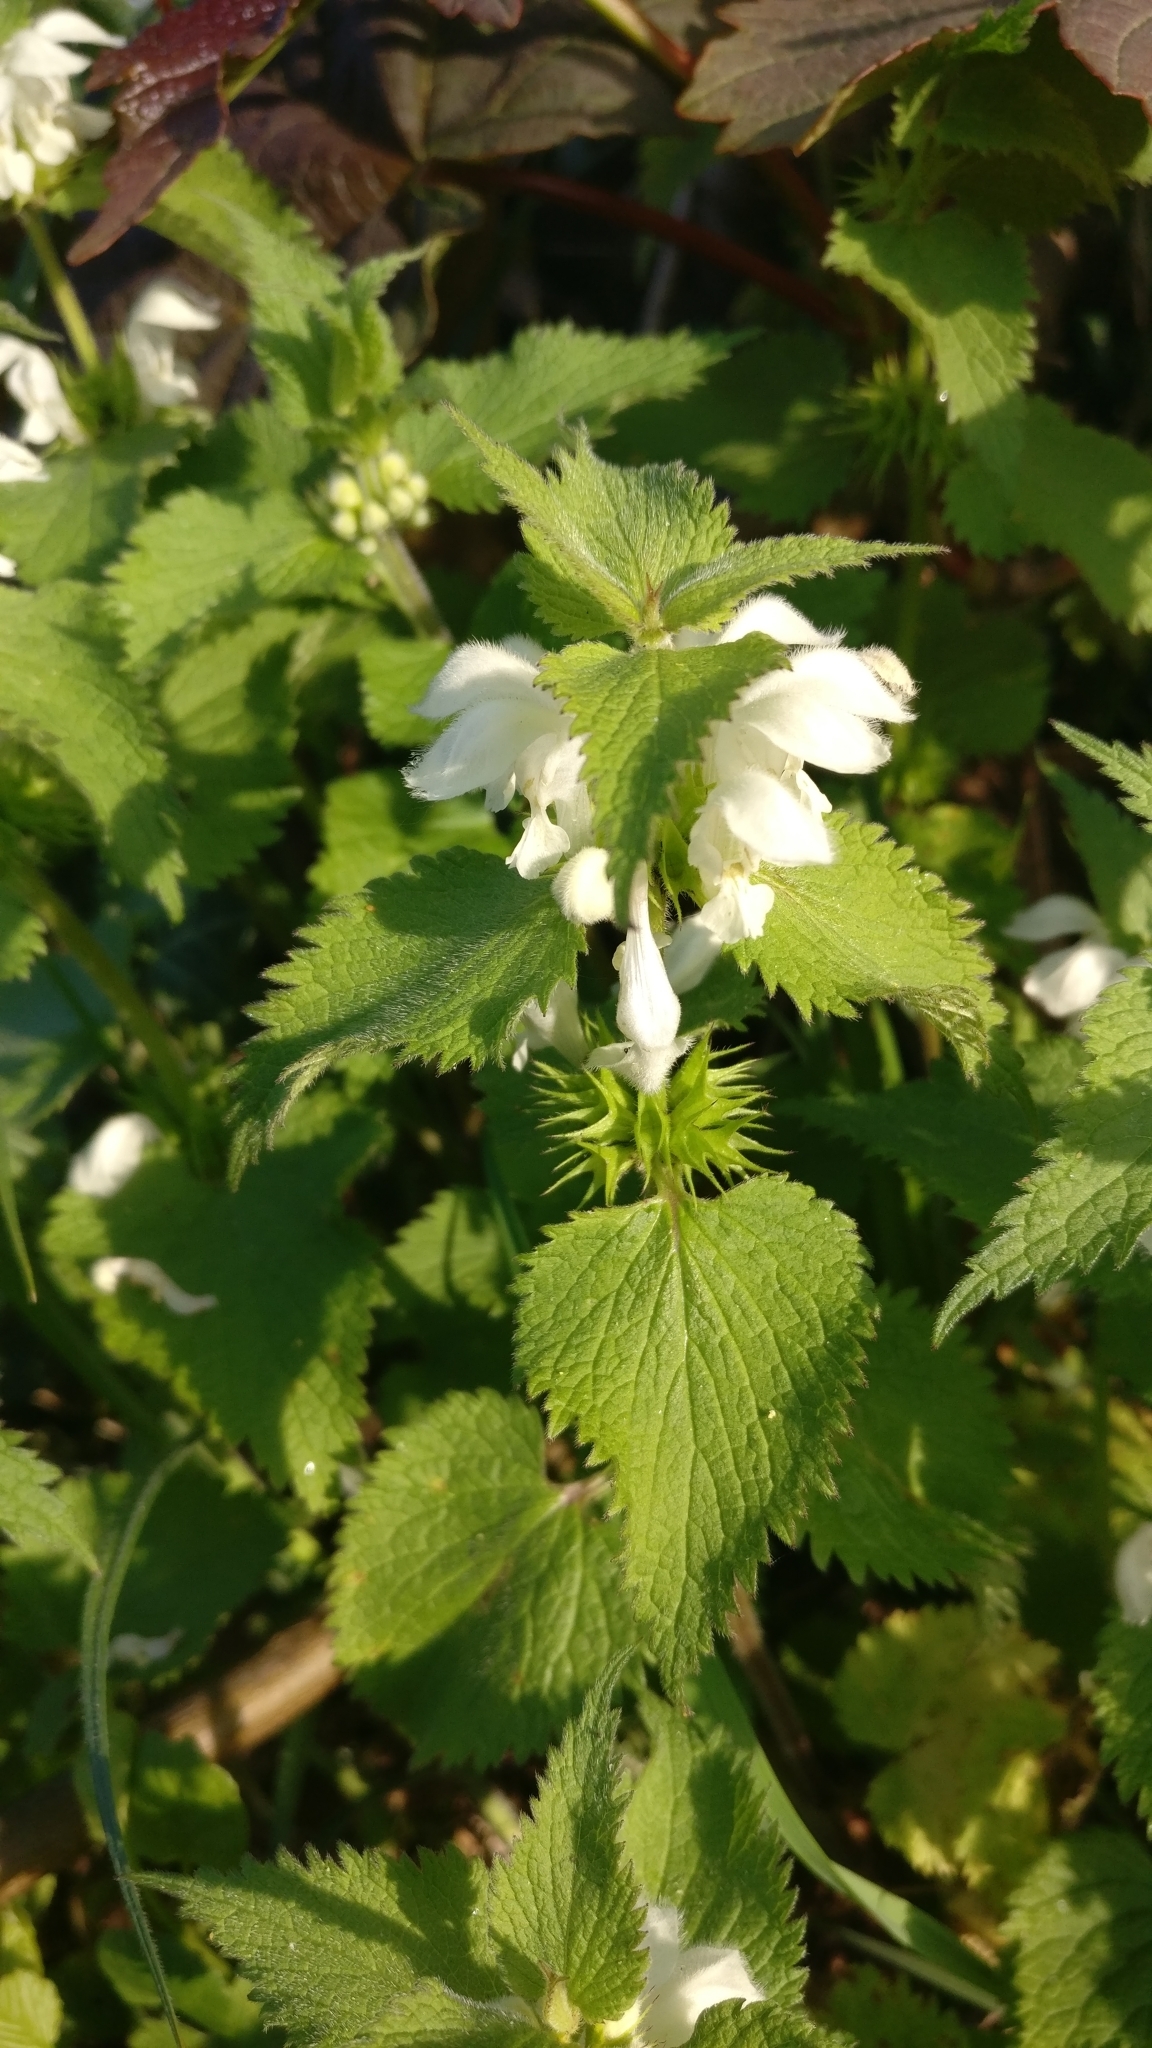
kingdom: Plantae
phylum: Tracheophyta
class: Magnoliopsida
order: Lamiales
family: Lamiaceae
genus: Lamium
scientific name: Lamium album
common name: White dead-nettle
